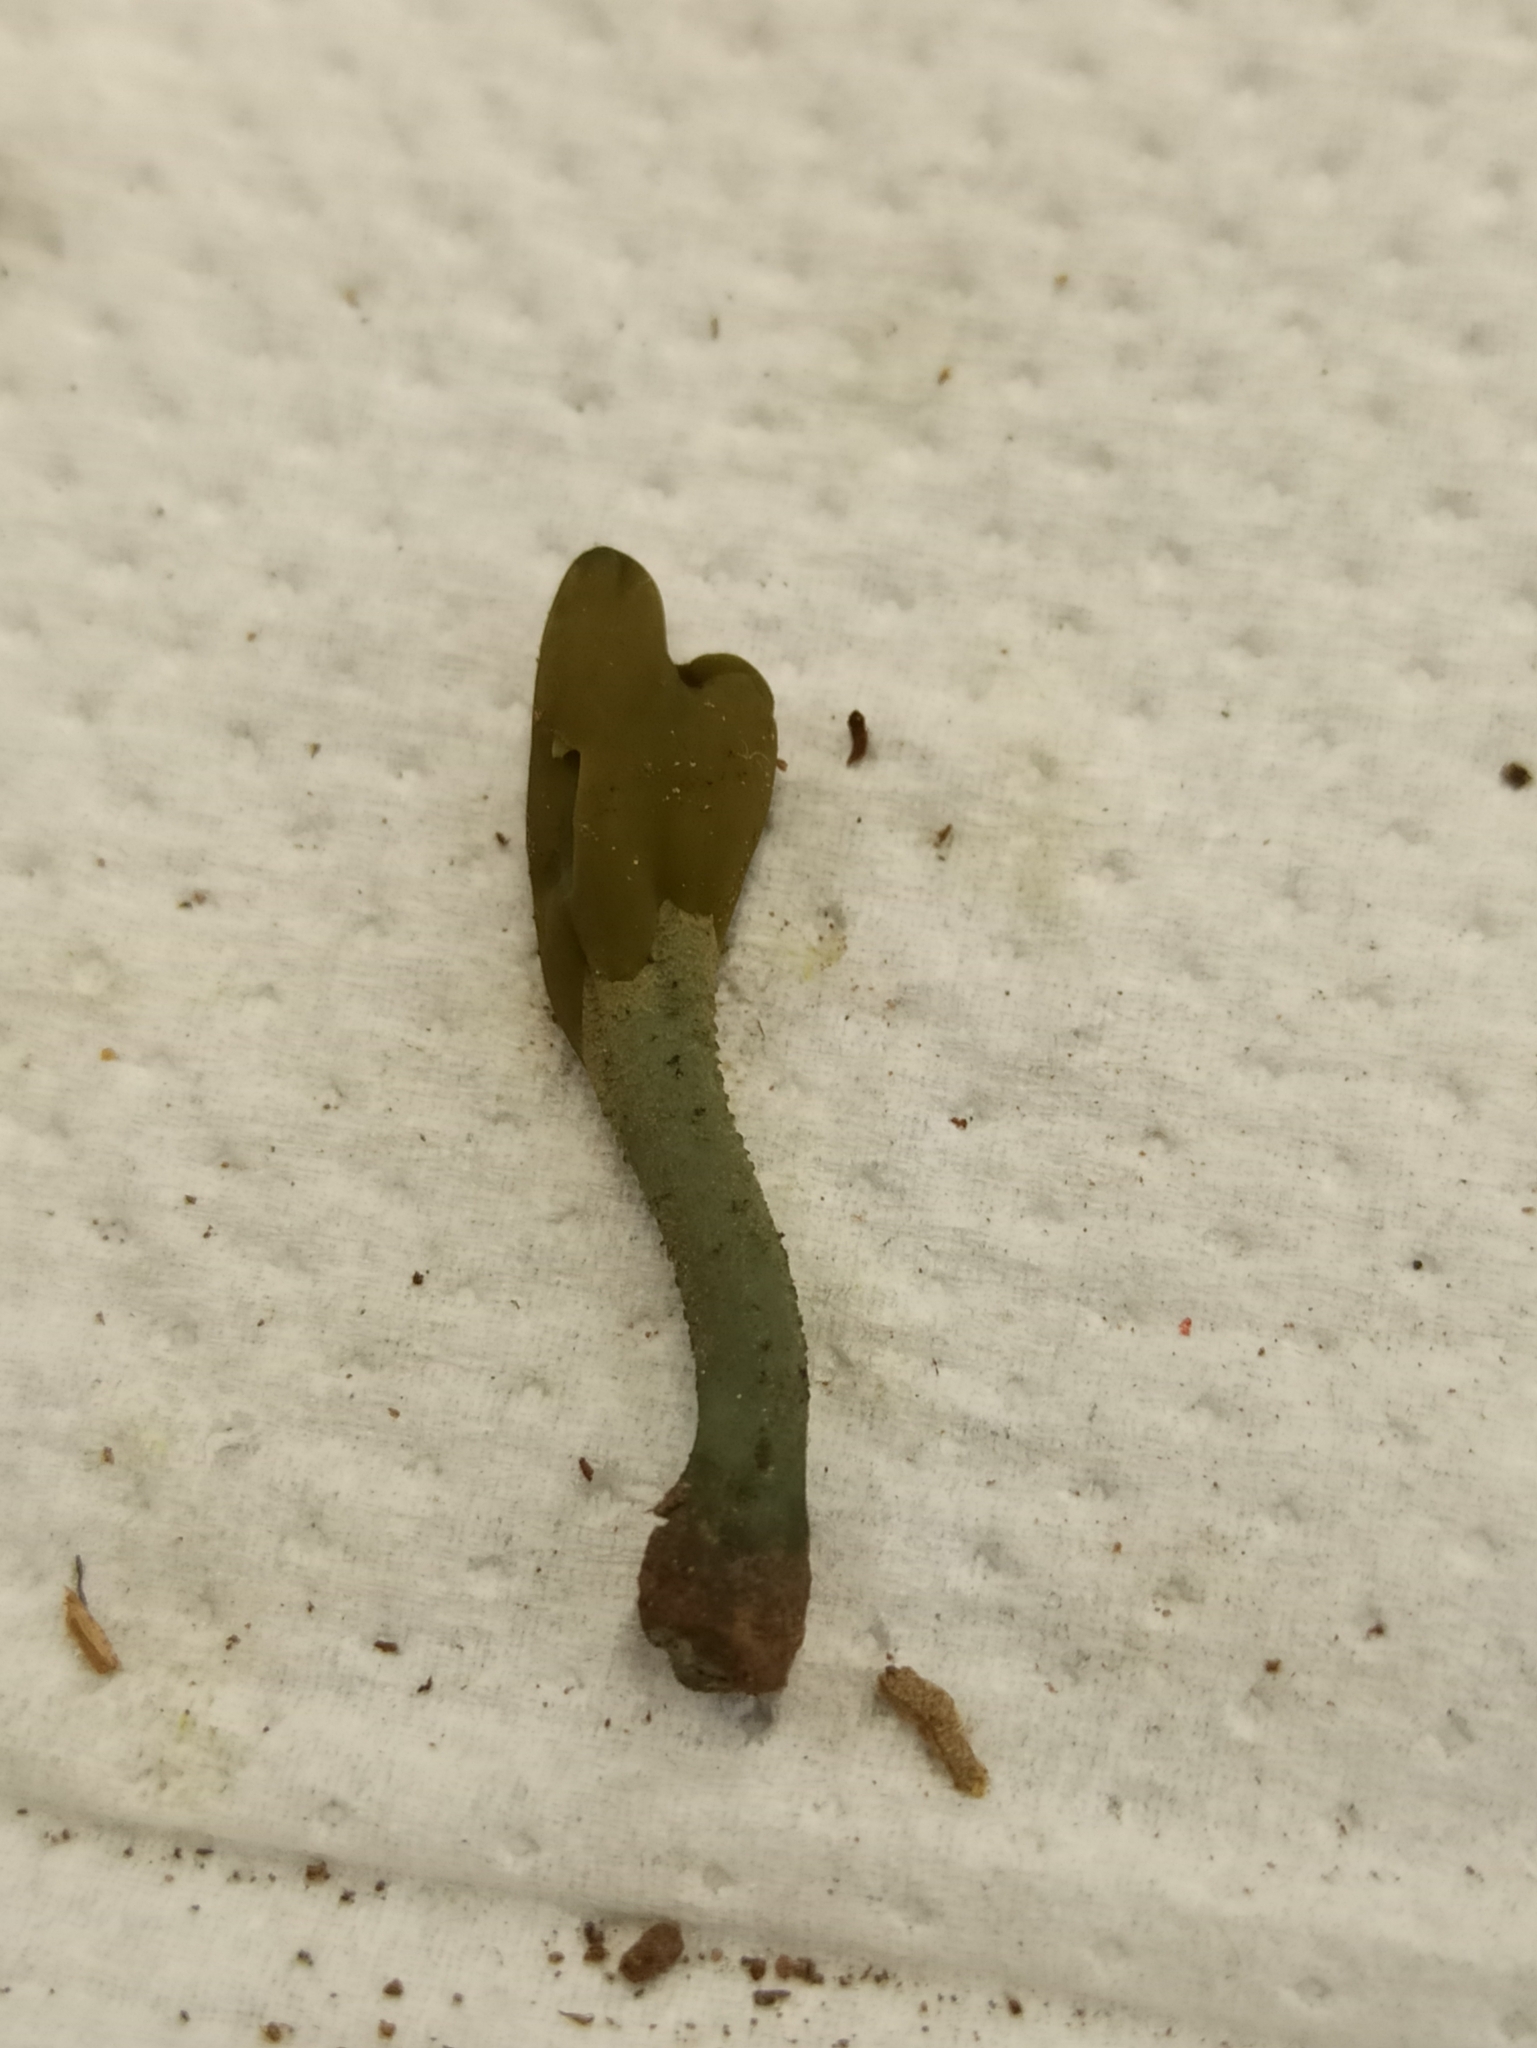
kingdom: Fungi
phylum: Ascomycota
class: Leotiomycetes
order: Leotiales
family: Leotiaceae
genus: Microglossum
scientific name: Microglossum viride
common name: Green earthtongue
